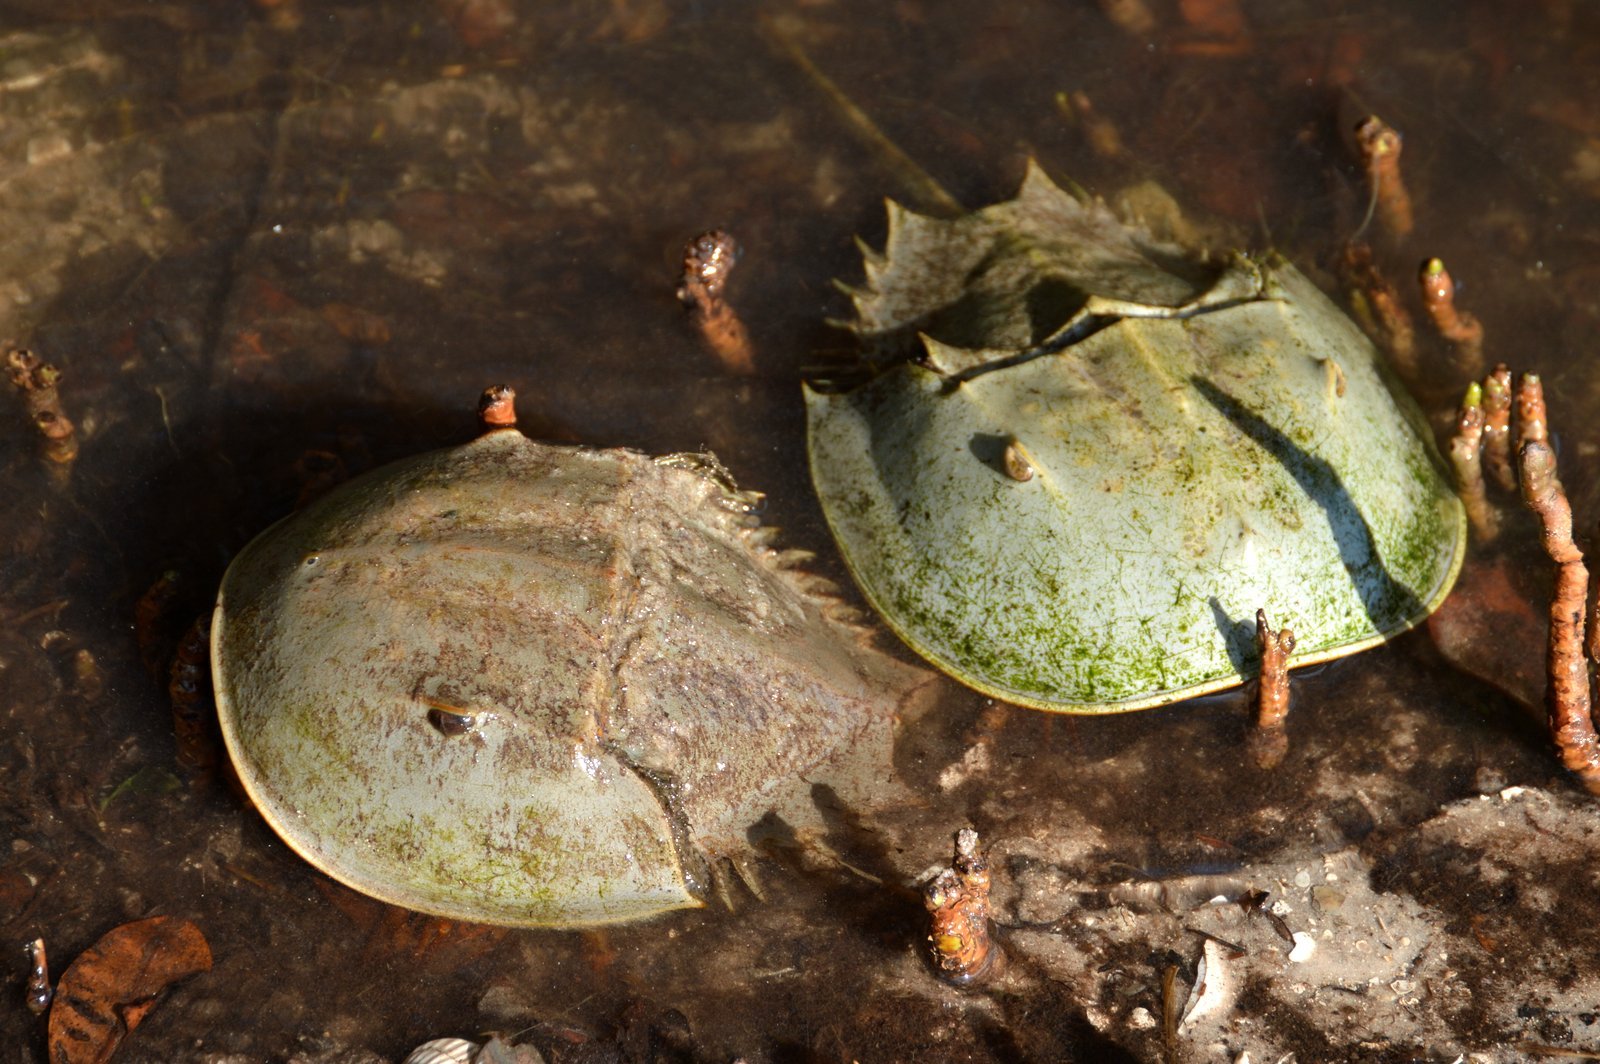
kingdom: Animalia
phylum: Arthropoda
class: Merostomata
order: Xiphosurida
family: Limulidae
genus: Limulus
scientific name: Limulus polyphemus
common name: Horseshoe crab
